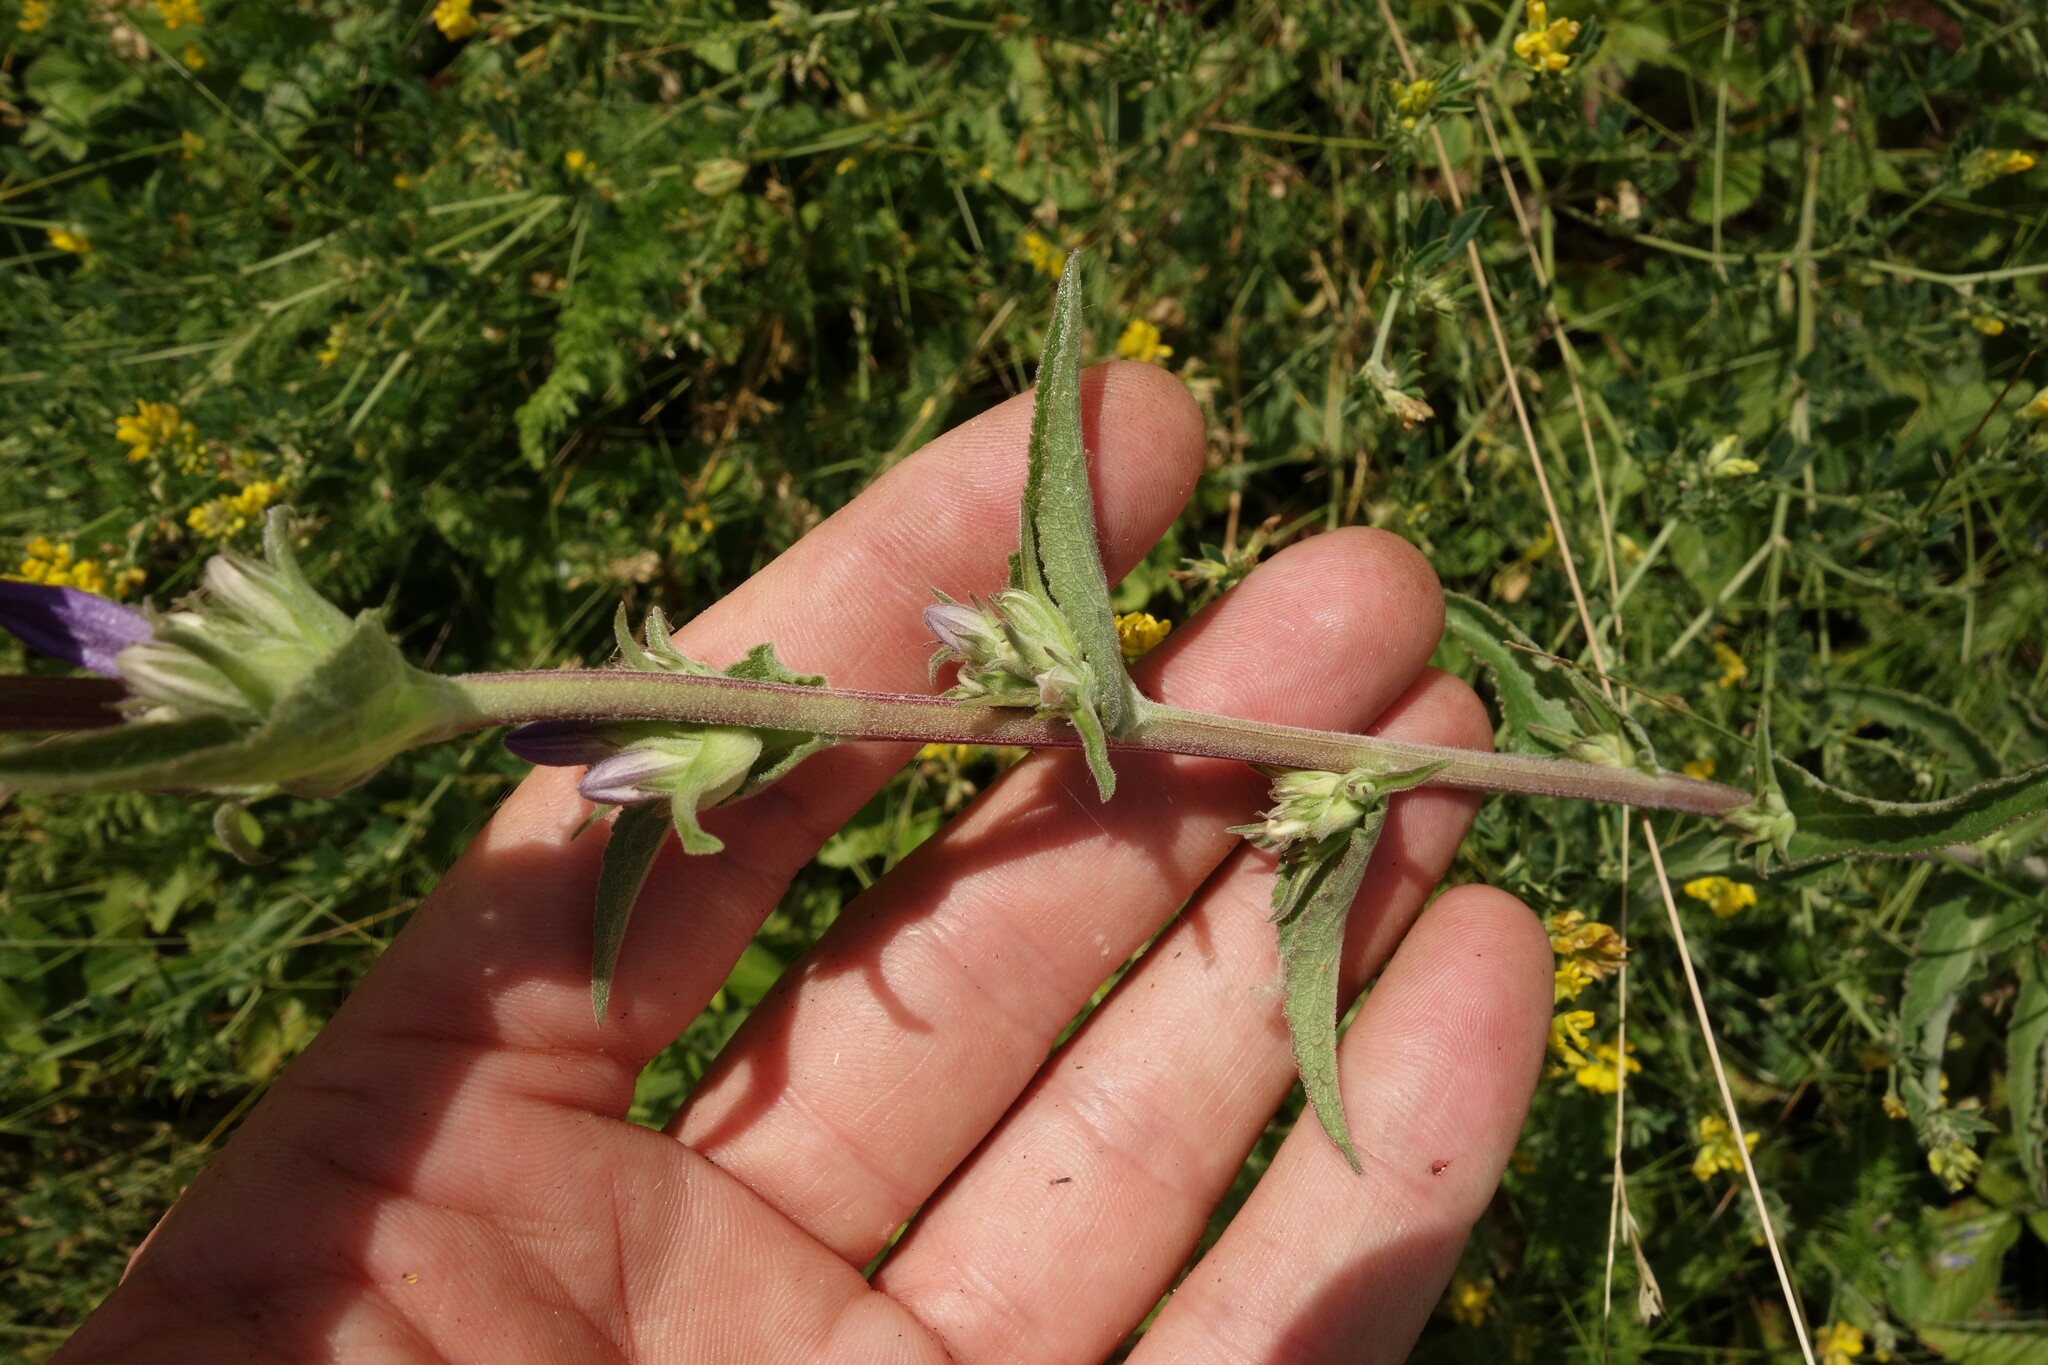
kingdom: Plantae
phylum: Tracheophyta
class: Magnoliopsida
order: Asterales
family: Campanulaceae
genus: Campanula
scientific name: Campanula glomerata
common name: Clustered bellflower
